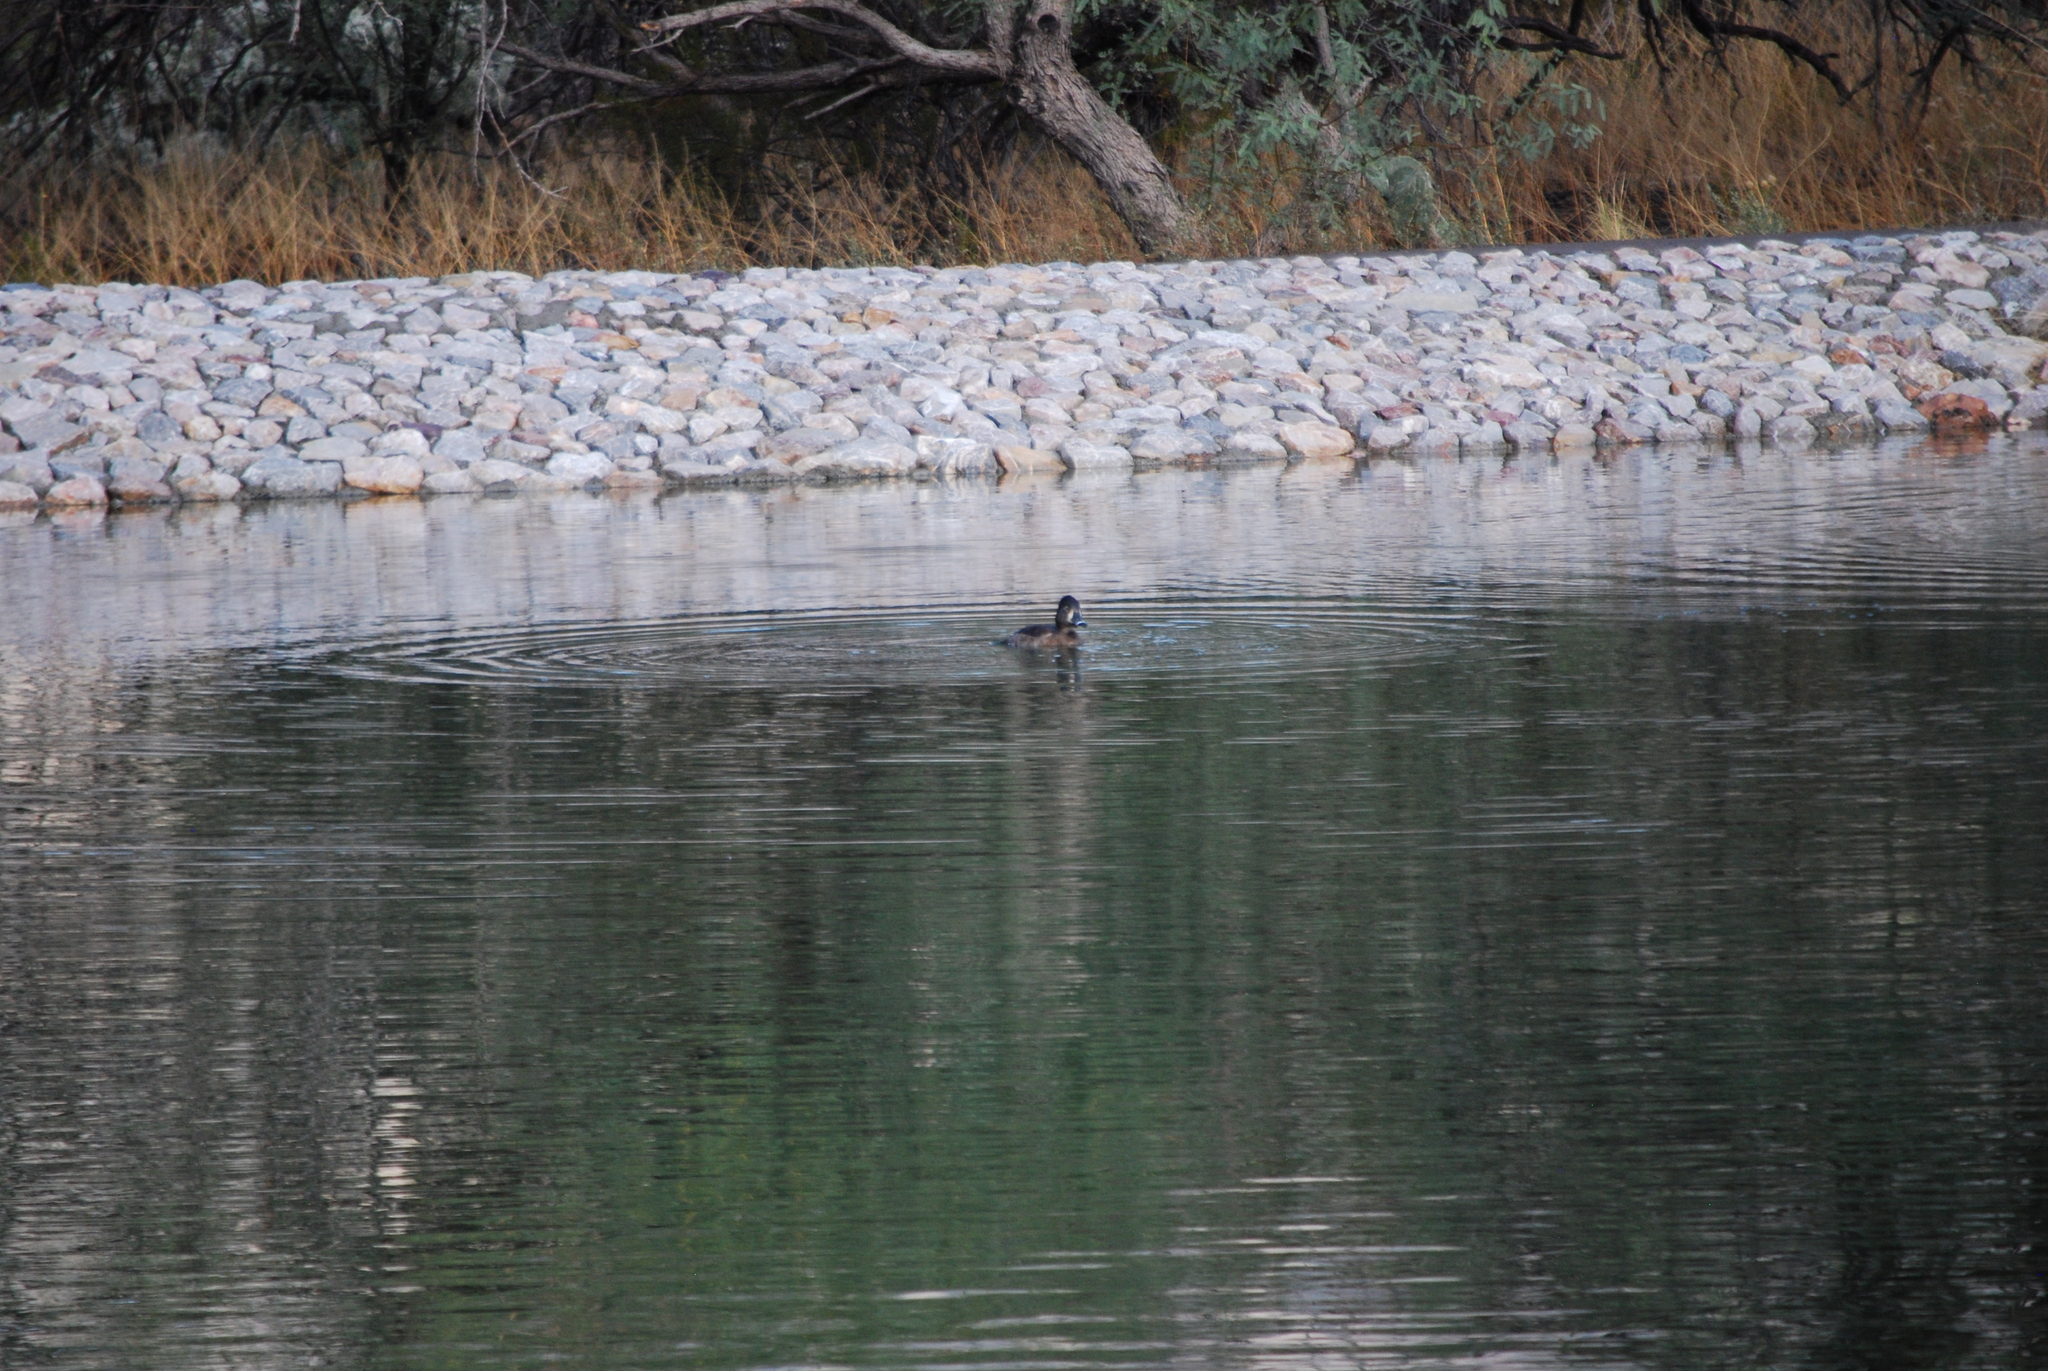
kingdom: Animalia
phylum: Chordata
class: Aves
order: Anseriformes
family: Anatidae
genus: Aythya
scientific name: Aythya collaris
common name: Ring-necked duck
